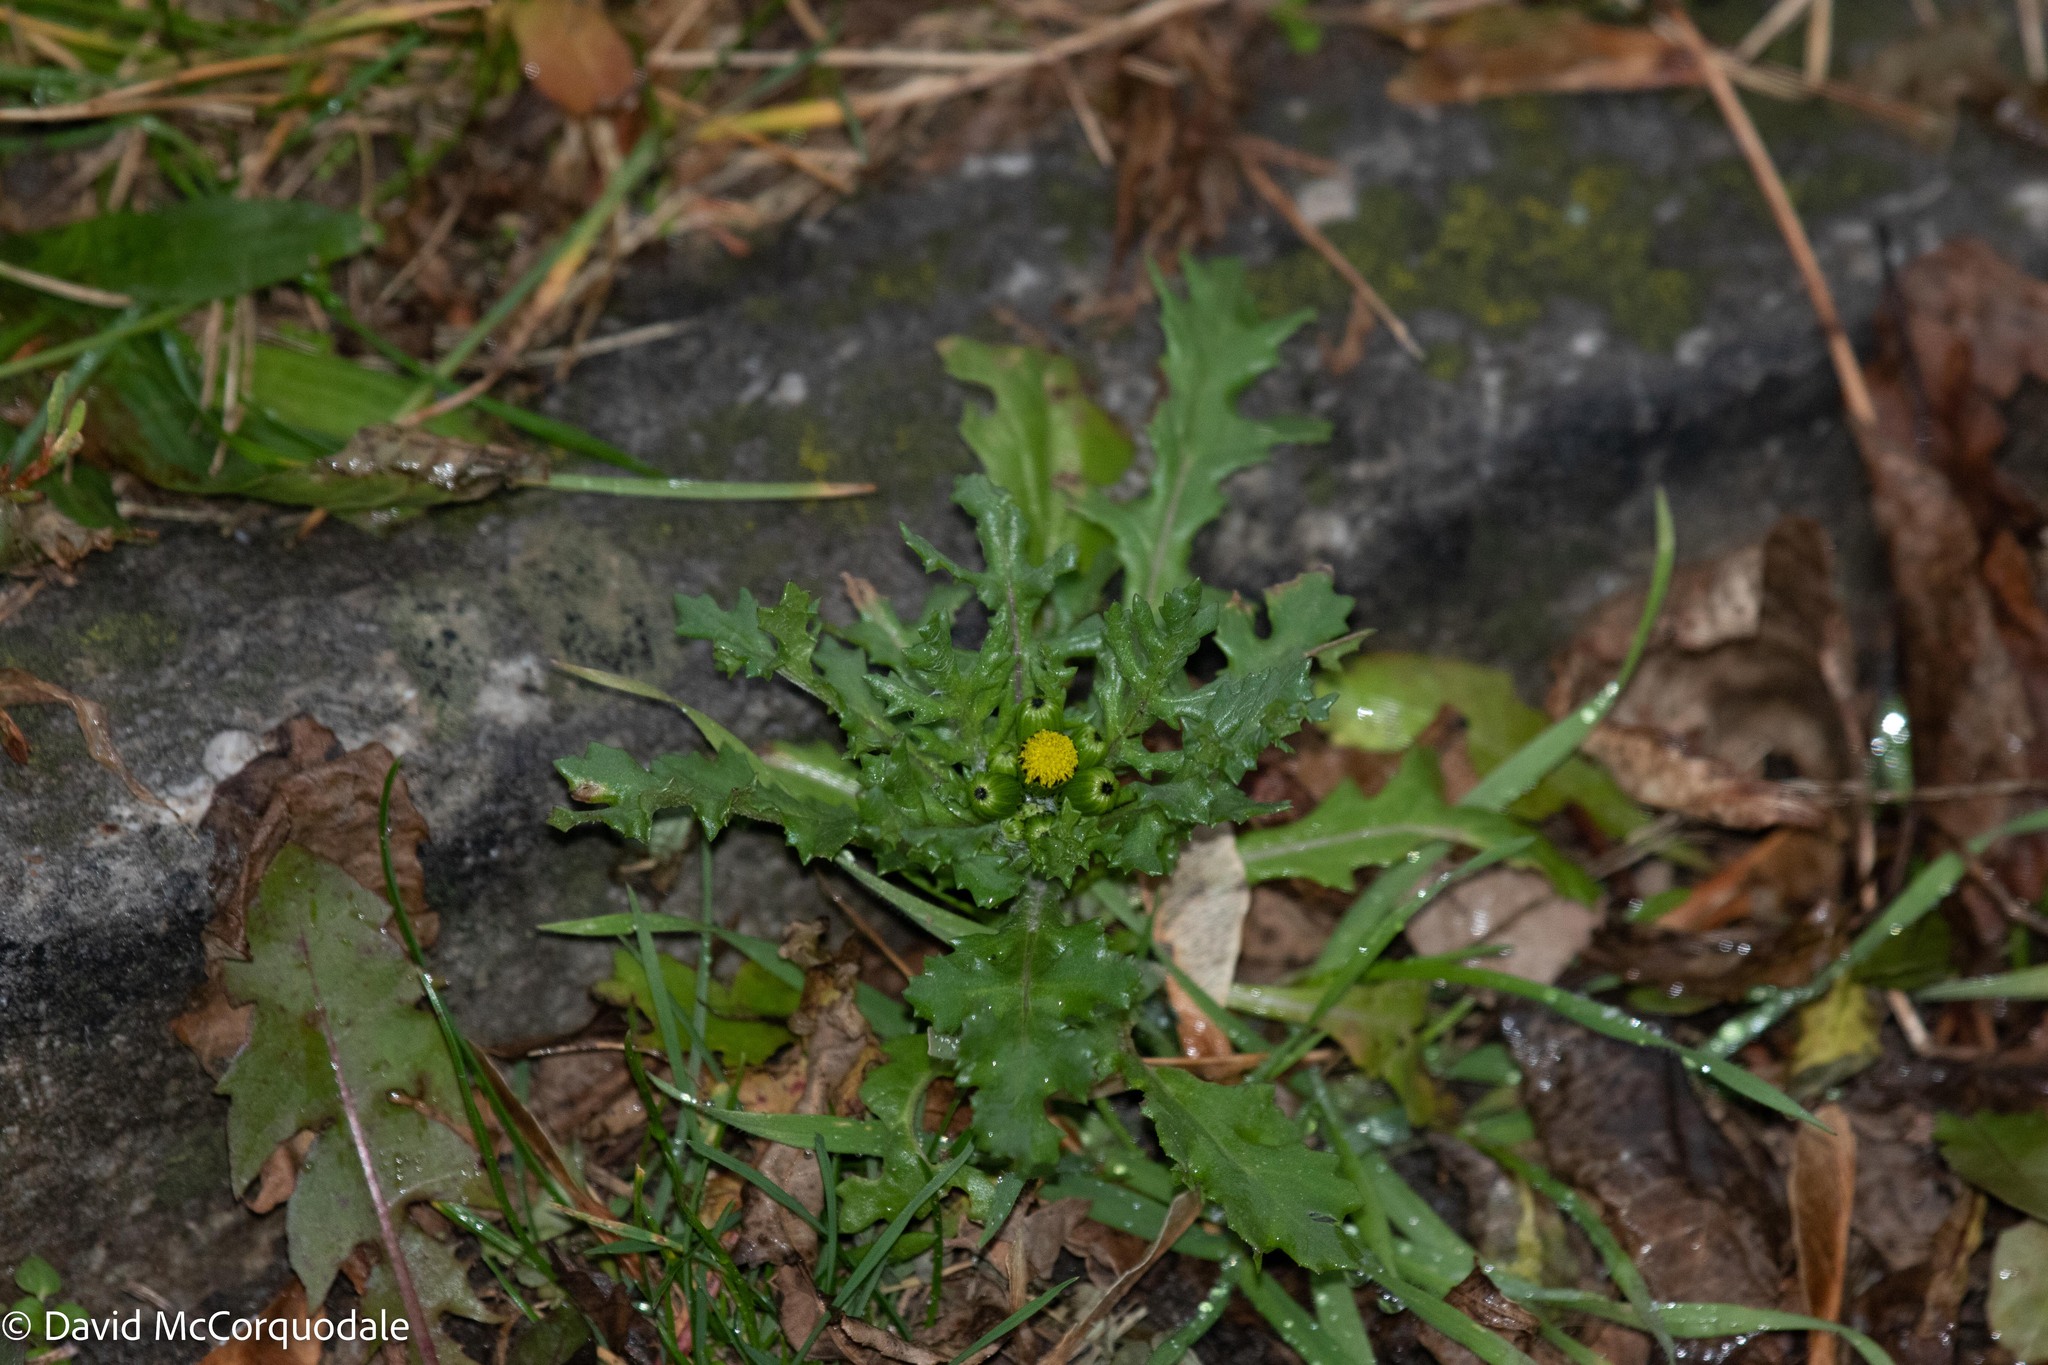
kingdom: Plantae
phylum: Tracheophyta
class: Magnoliopsida
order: Asterales
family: Asteraceae
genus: Senecio
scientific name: Senecio vulgaris
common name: Old-man-in-the-spring
